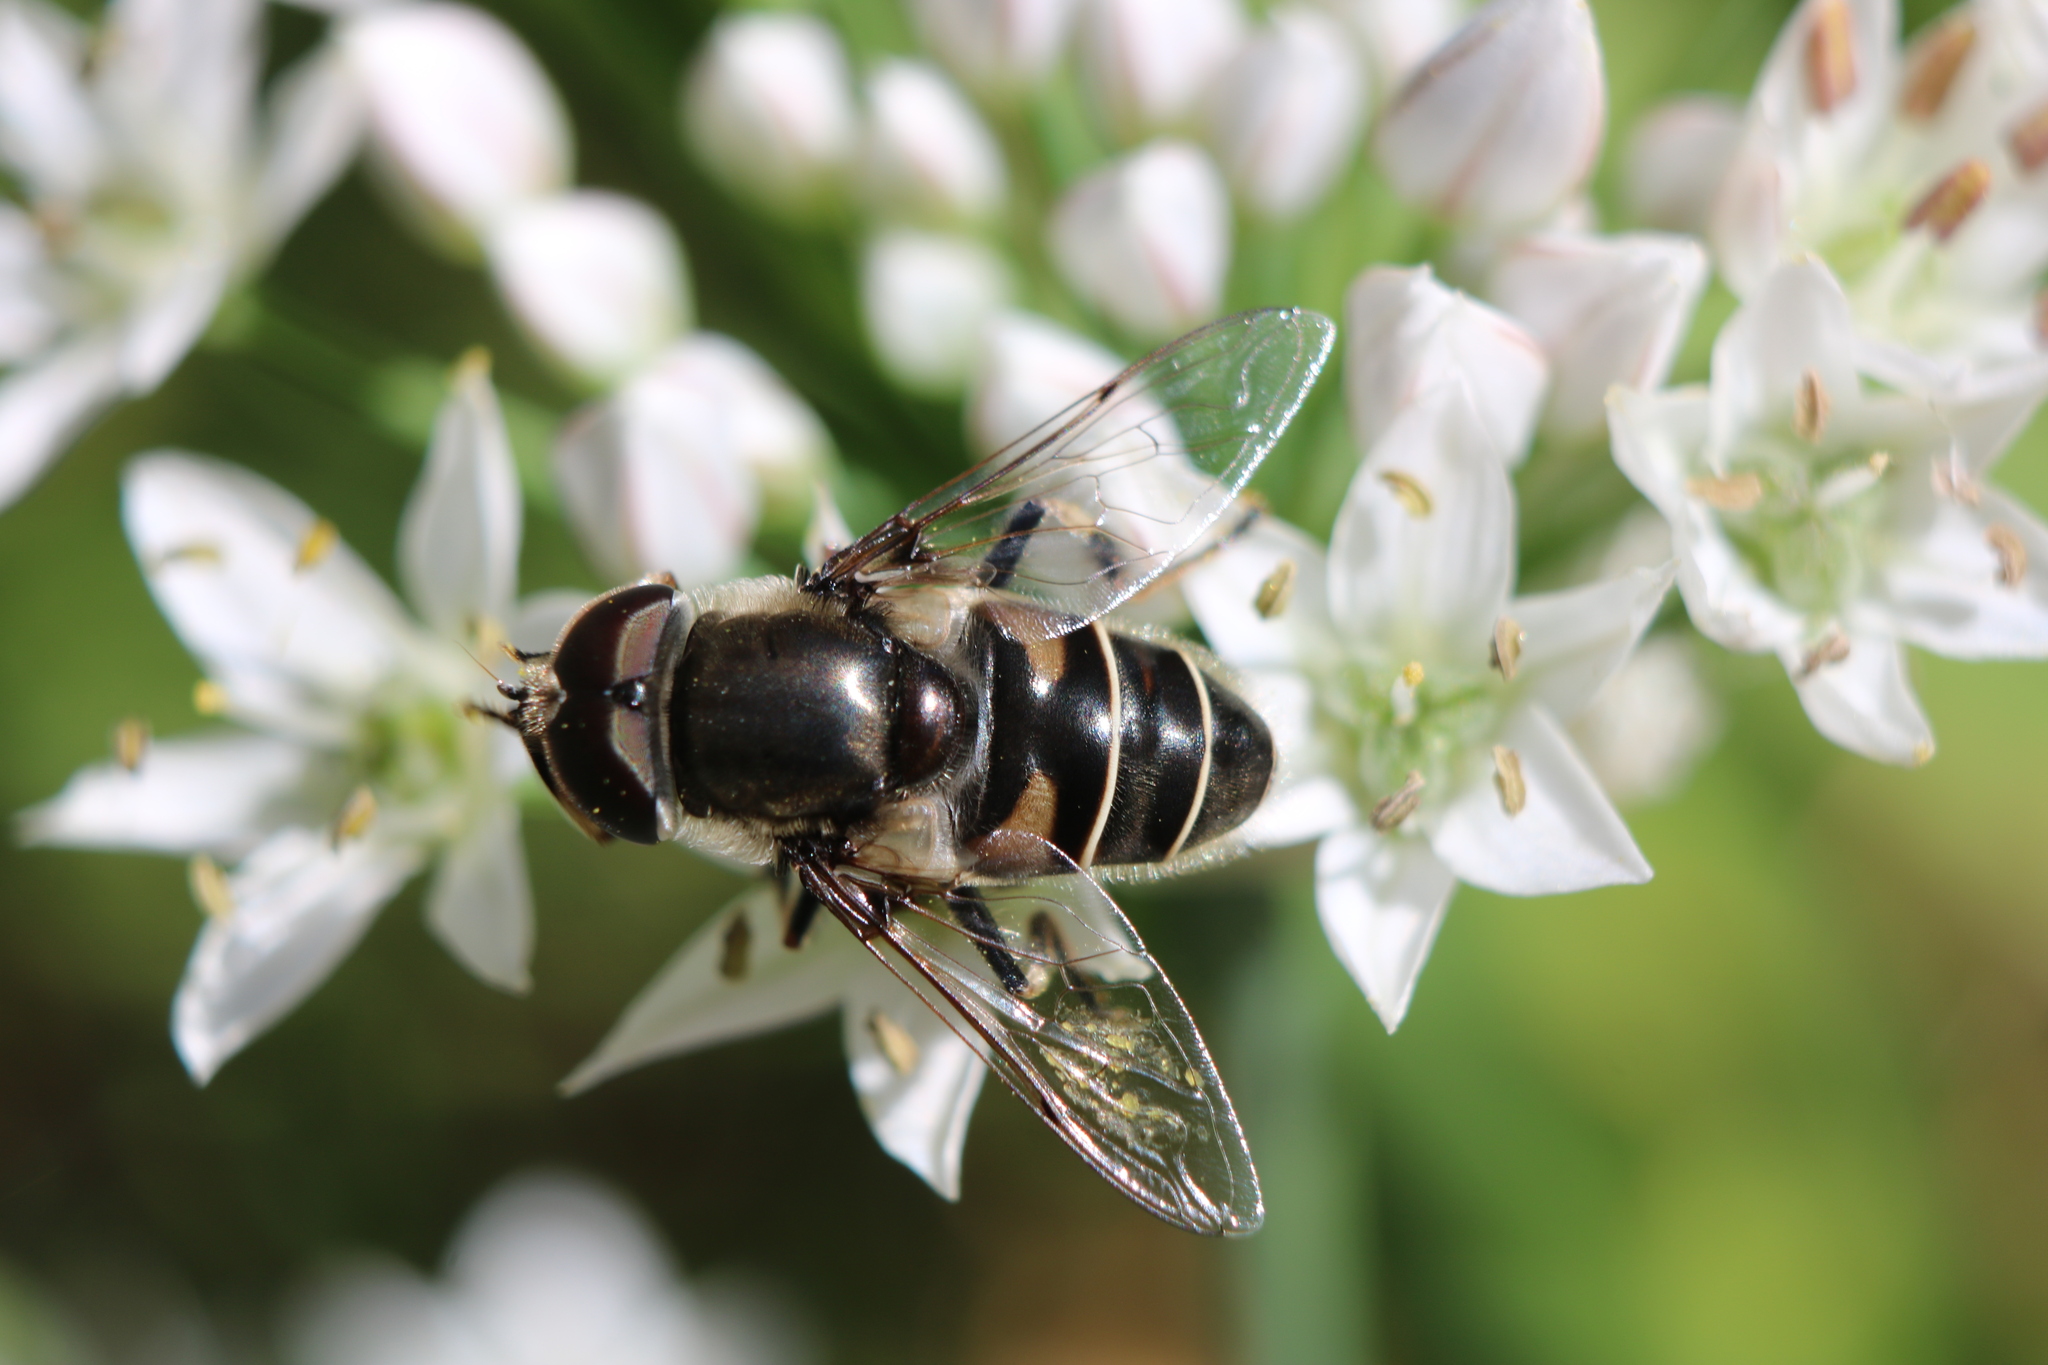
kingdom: Animalia
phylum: Arthropoda
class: Insecta
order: Diptera
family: Syrphidae
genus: Eristalis
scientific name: Eristalis dimidiata
